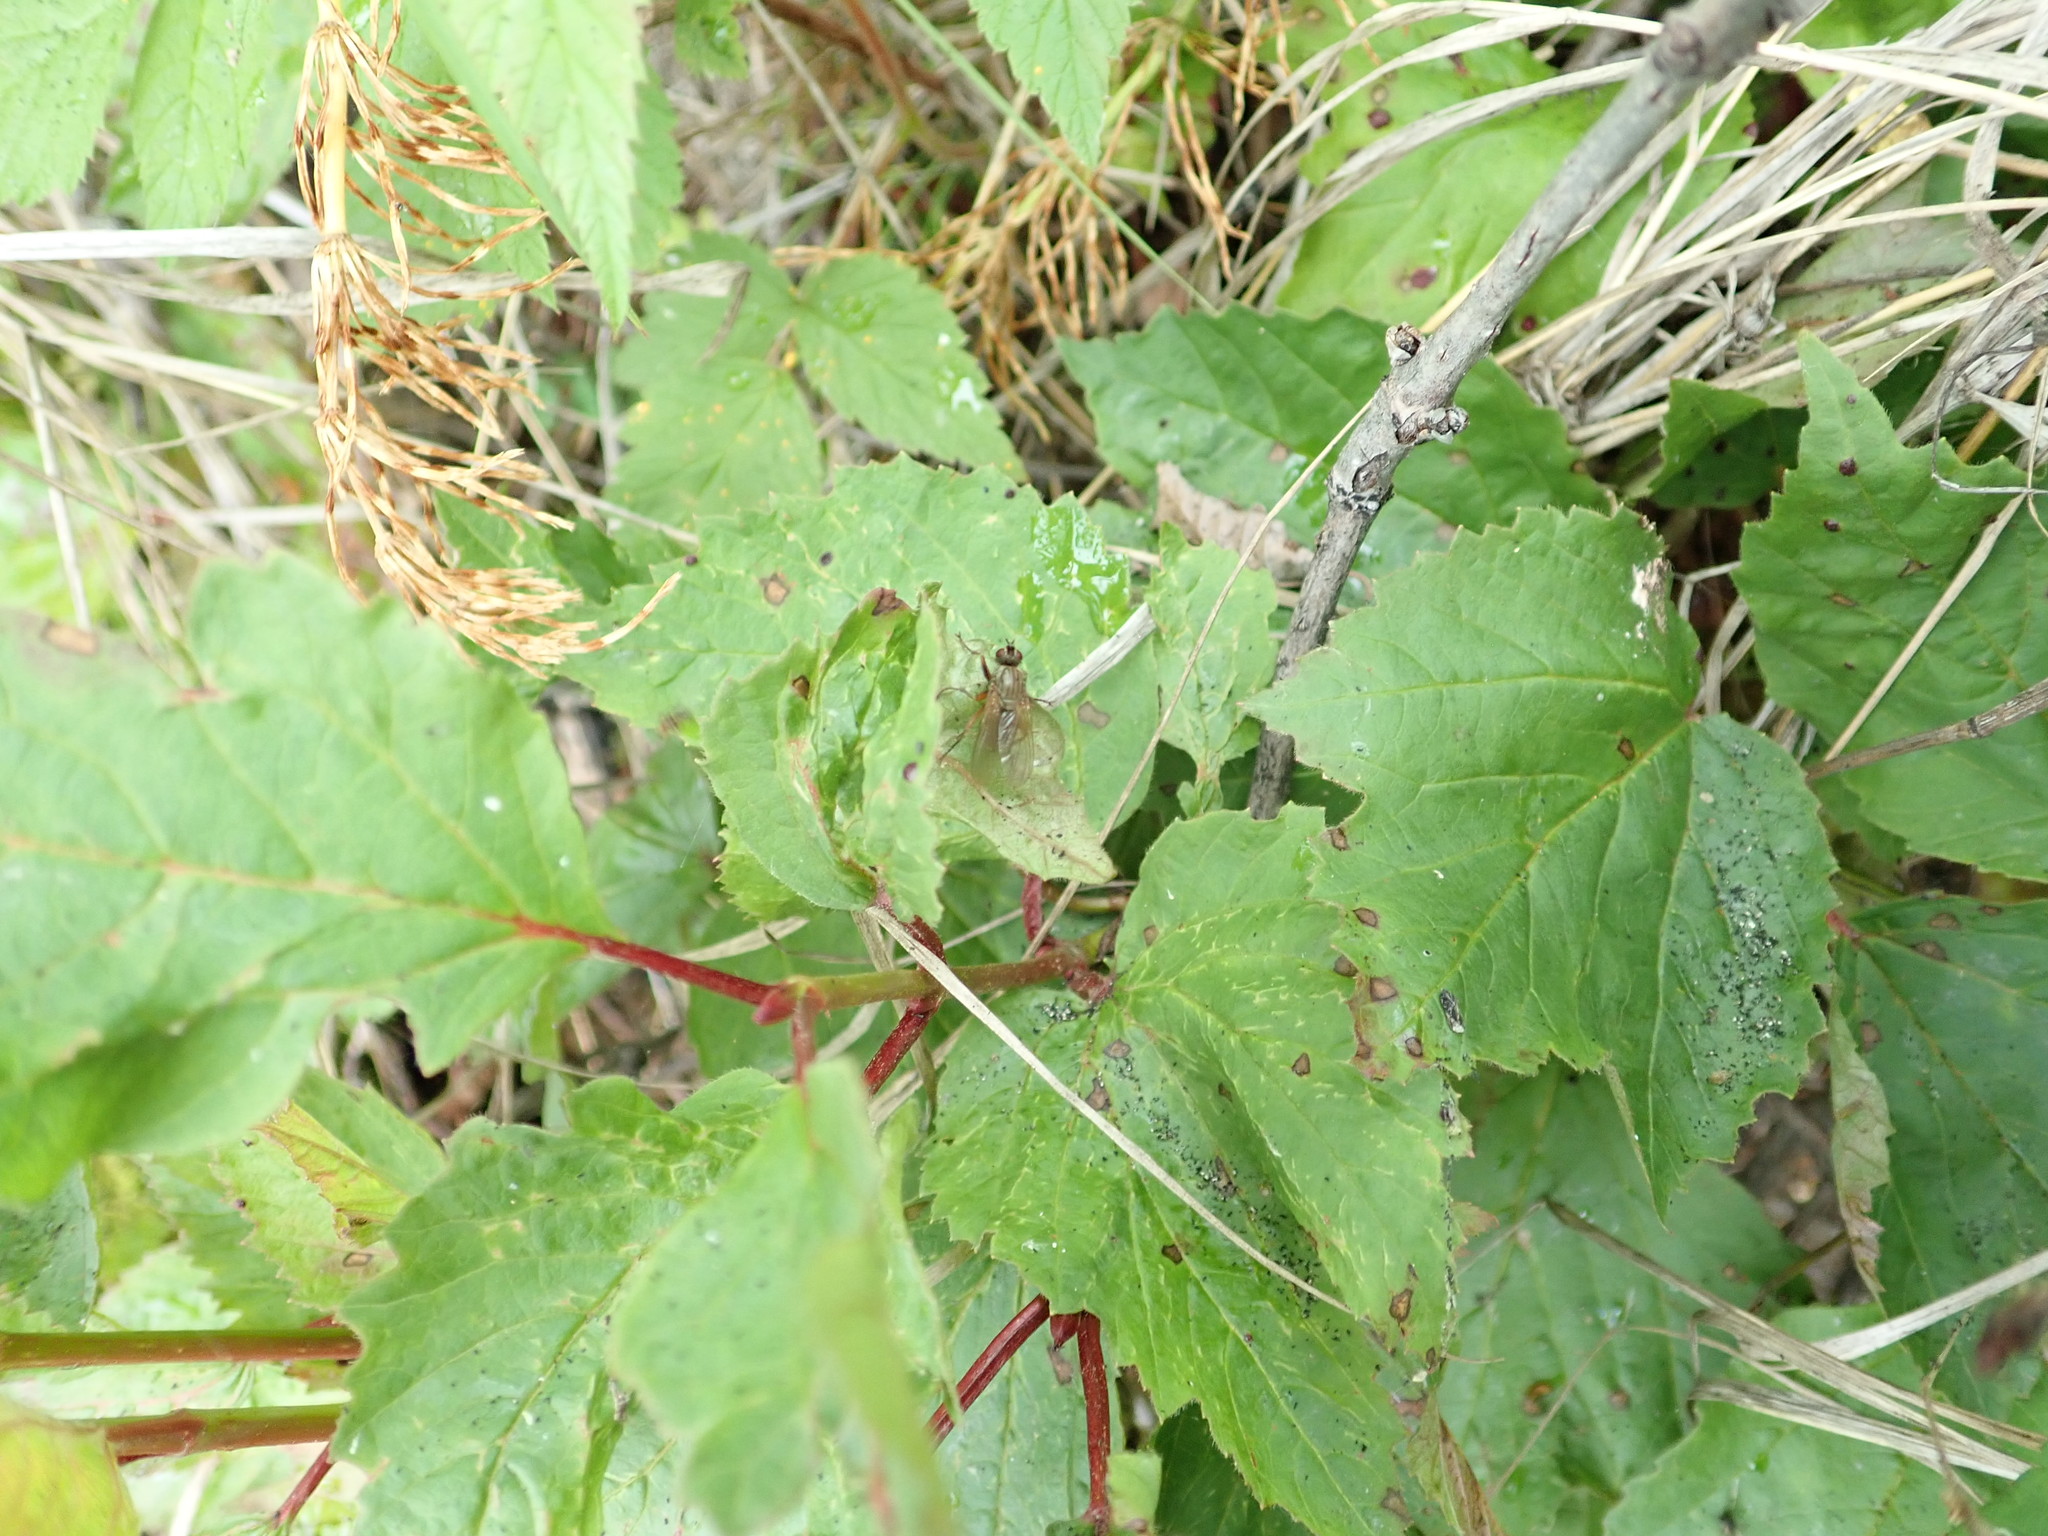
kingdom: Plantae
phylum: Tracheophyta
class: Magnoliopsida
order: Dipsacales
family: Viburnaceae
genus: Viburnum
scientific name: Viburnum edule
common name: Mooseberry
